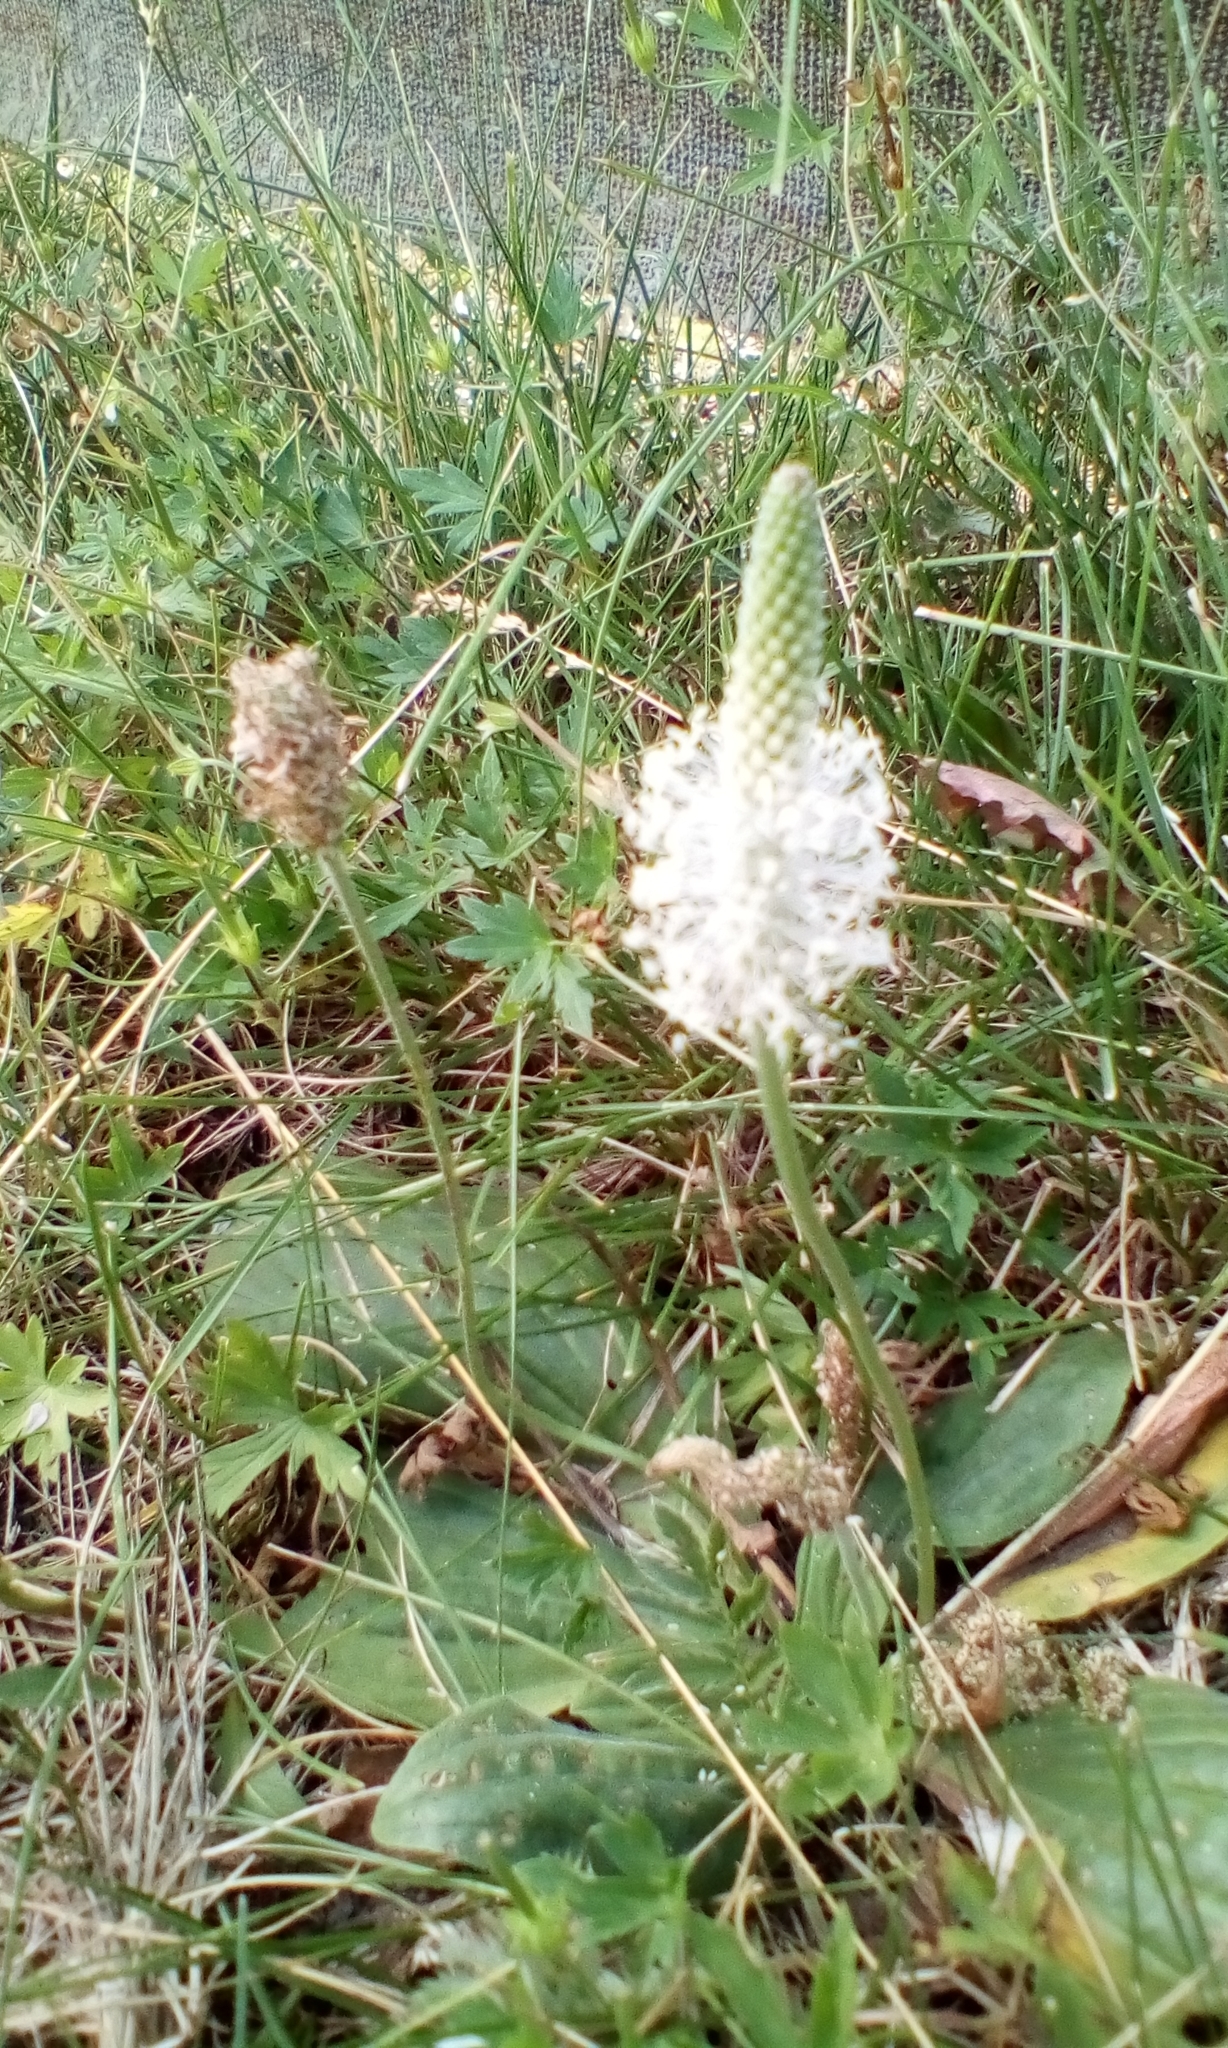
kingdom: Plantae
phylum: Tracheophyta
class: Magnoliopsida
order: Lamiales
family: Plantaginaceae
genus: Plantago
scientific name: Plantago media
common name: Hoary plantain
